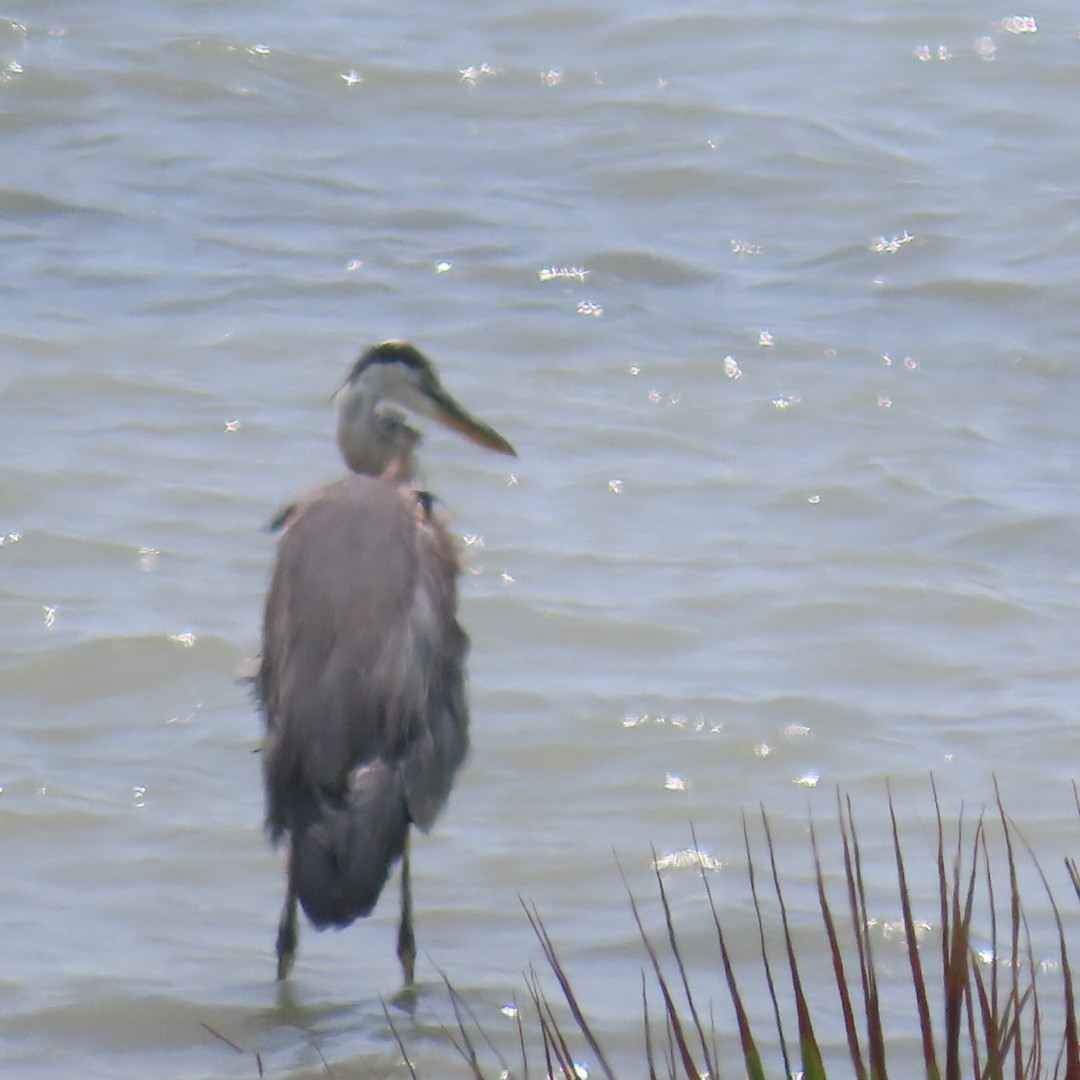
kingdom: Animalia
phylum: Chordata
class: Aves
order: Pelecaniformes
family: Ardeidae
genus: Ardea
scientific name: Ardea herodias
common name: Great blue heron
